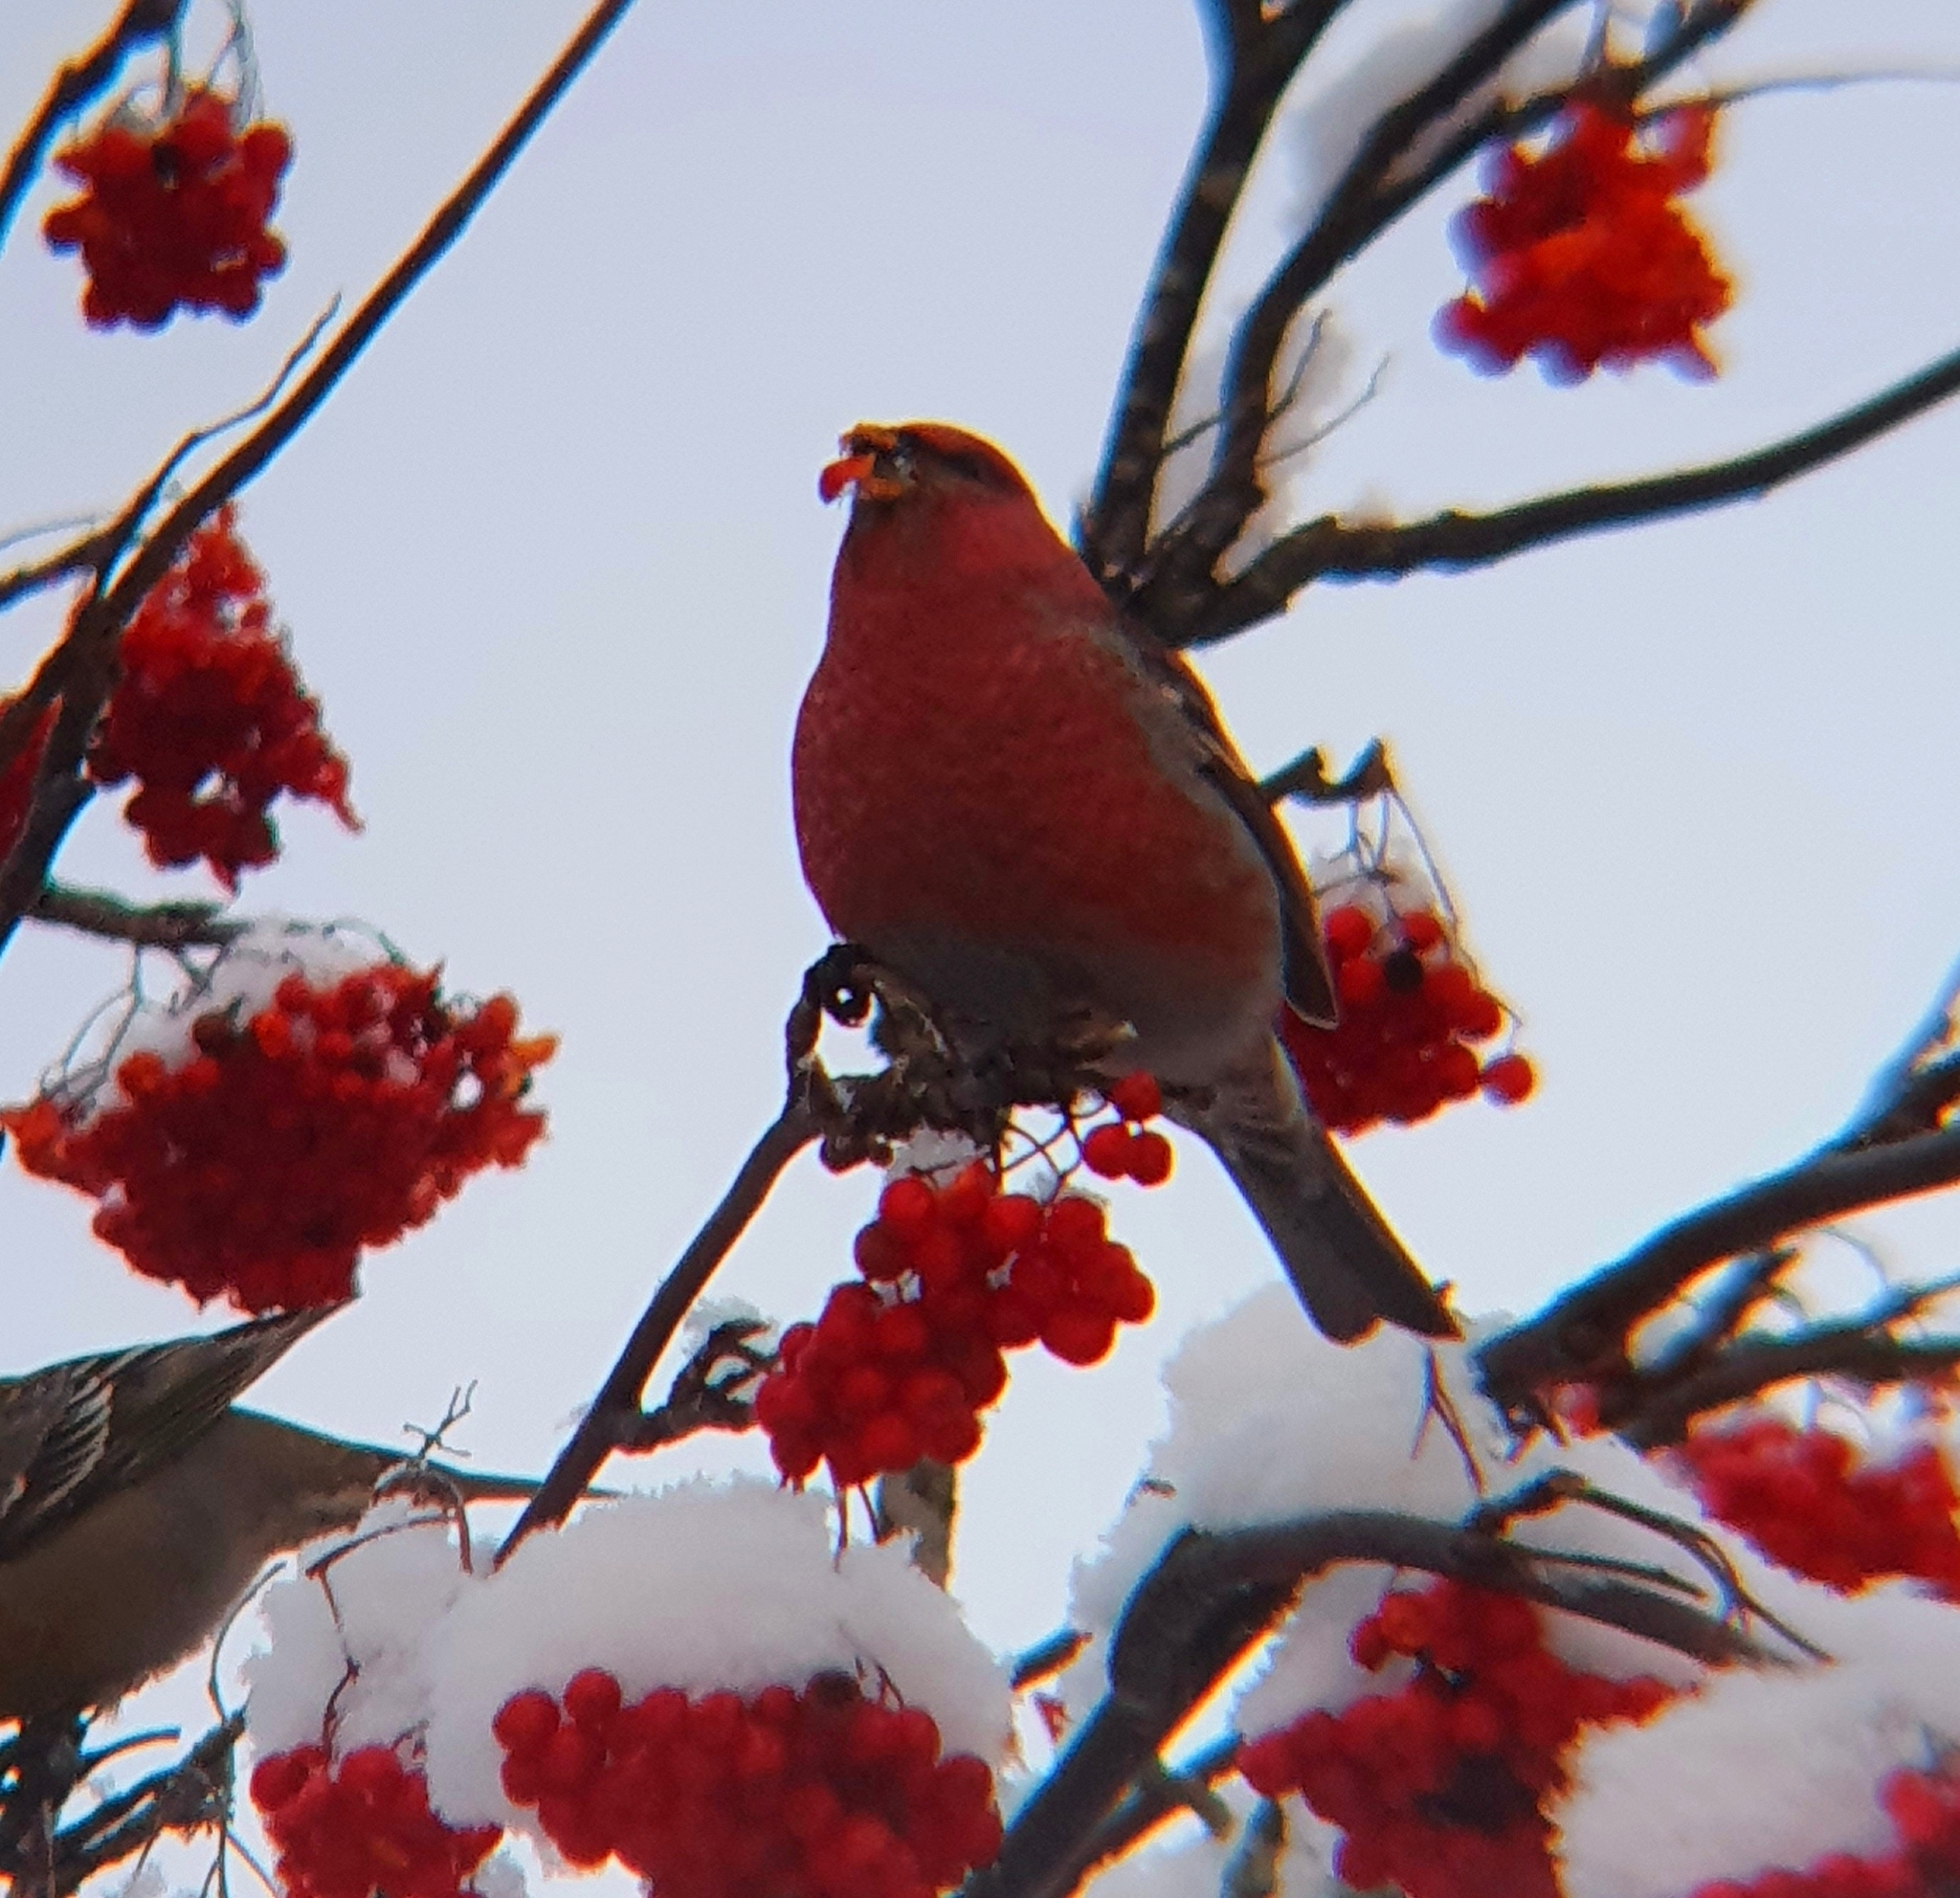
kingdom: Animalia
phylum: Chordata
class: Aves
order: Passeriformes
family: Fringillidae
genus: Pinicola
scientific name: Pinicola enucleator
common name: Pine grosbeak
